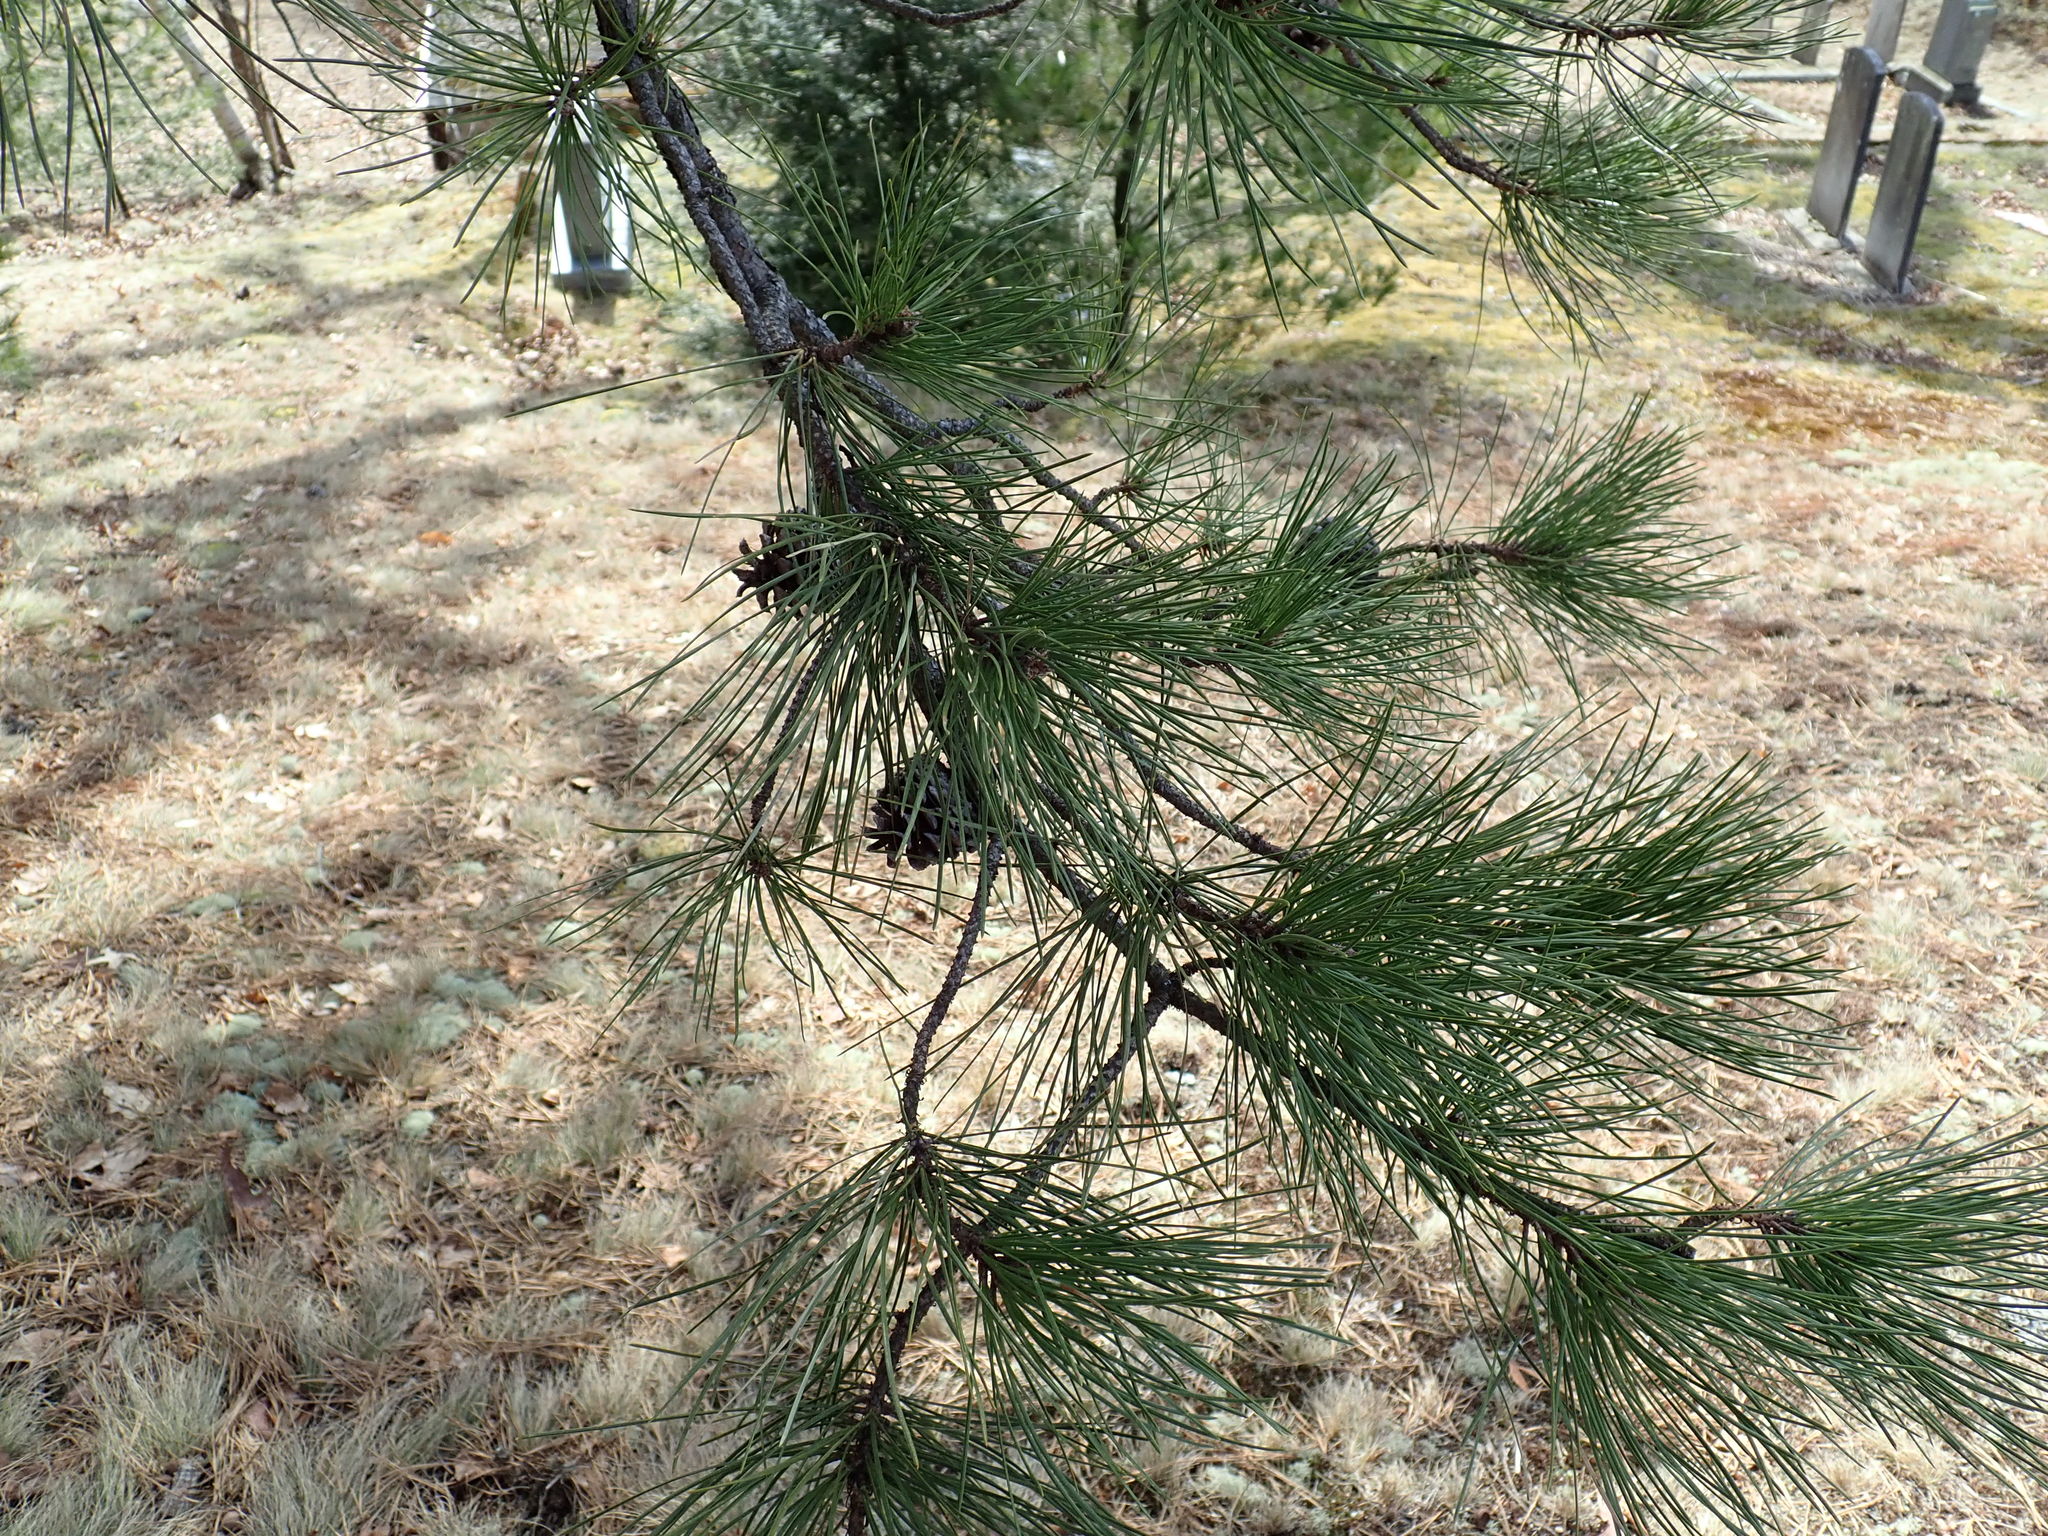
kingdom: Plantae
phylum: Tracheophyta
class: Pinopsida
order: Pinales
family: Pinaceae
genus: Pinus
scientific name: Pinus rigida
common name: Pitch pine
